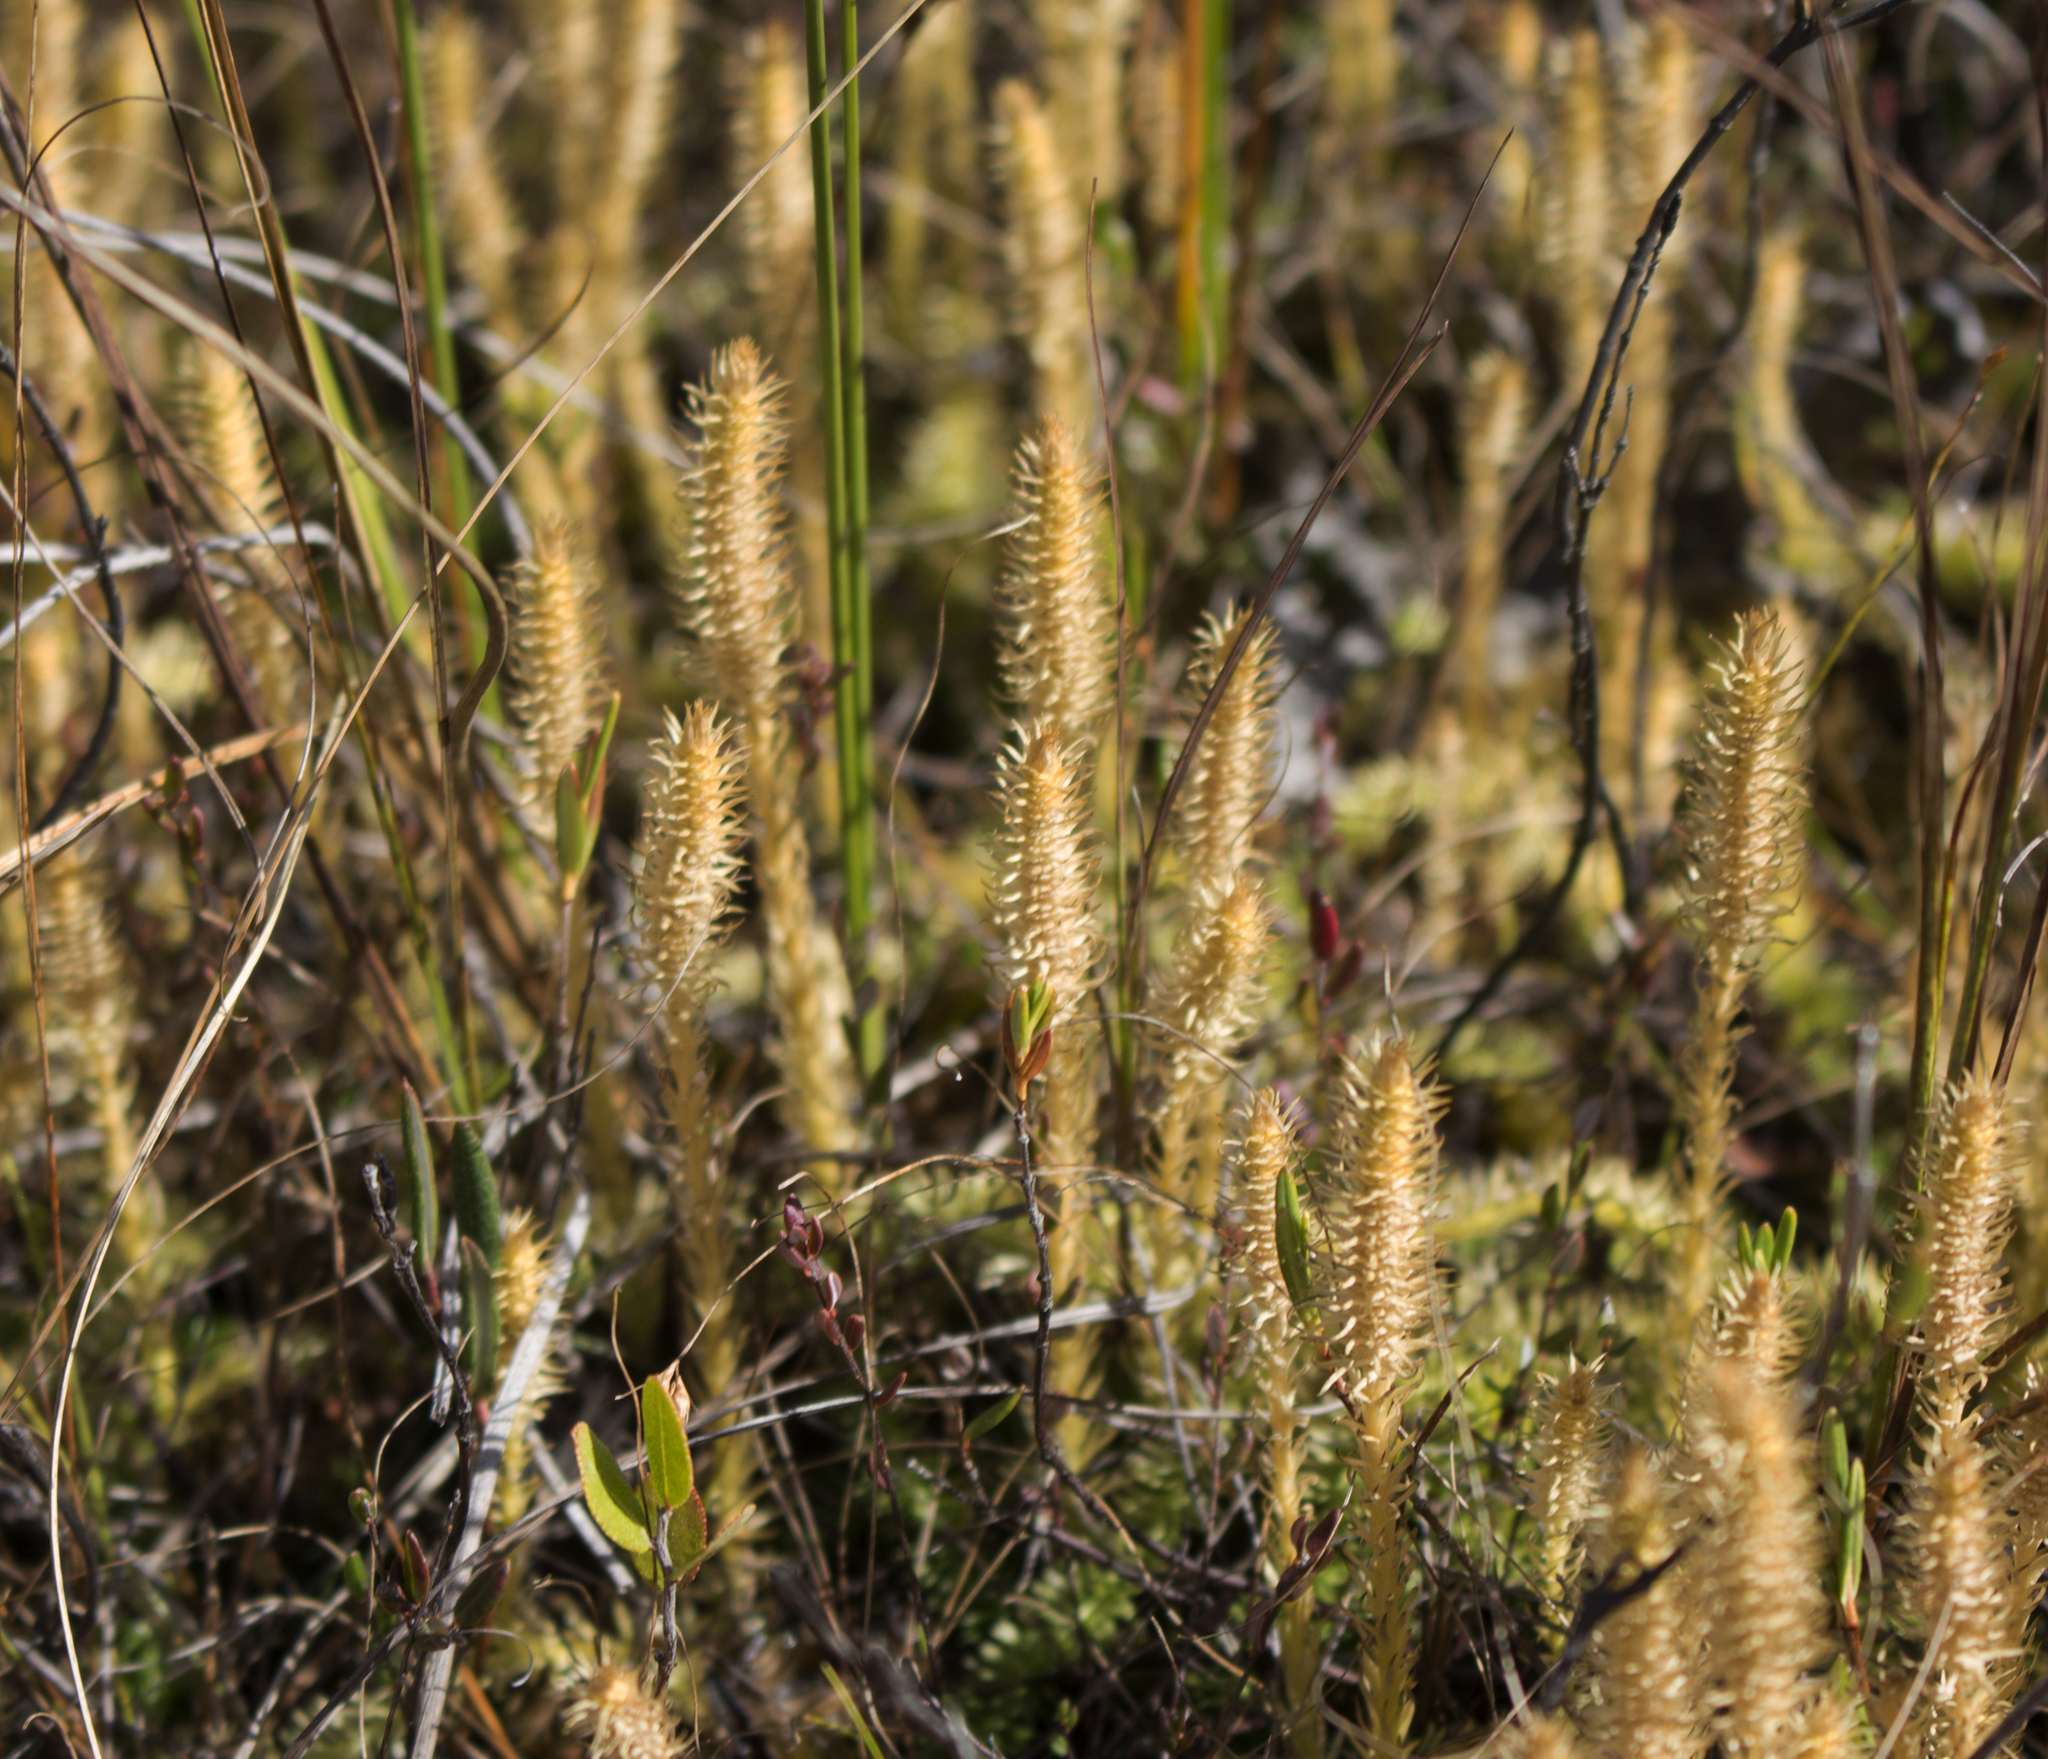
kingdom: Plantae
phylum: Tracheophyta
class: Lycopodiopsida
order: Lycopodiales
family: Lycopodiaceae
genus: Lycopodiella
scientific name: Lycopodiella inundata
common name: Marsh clubmoss
